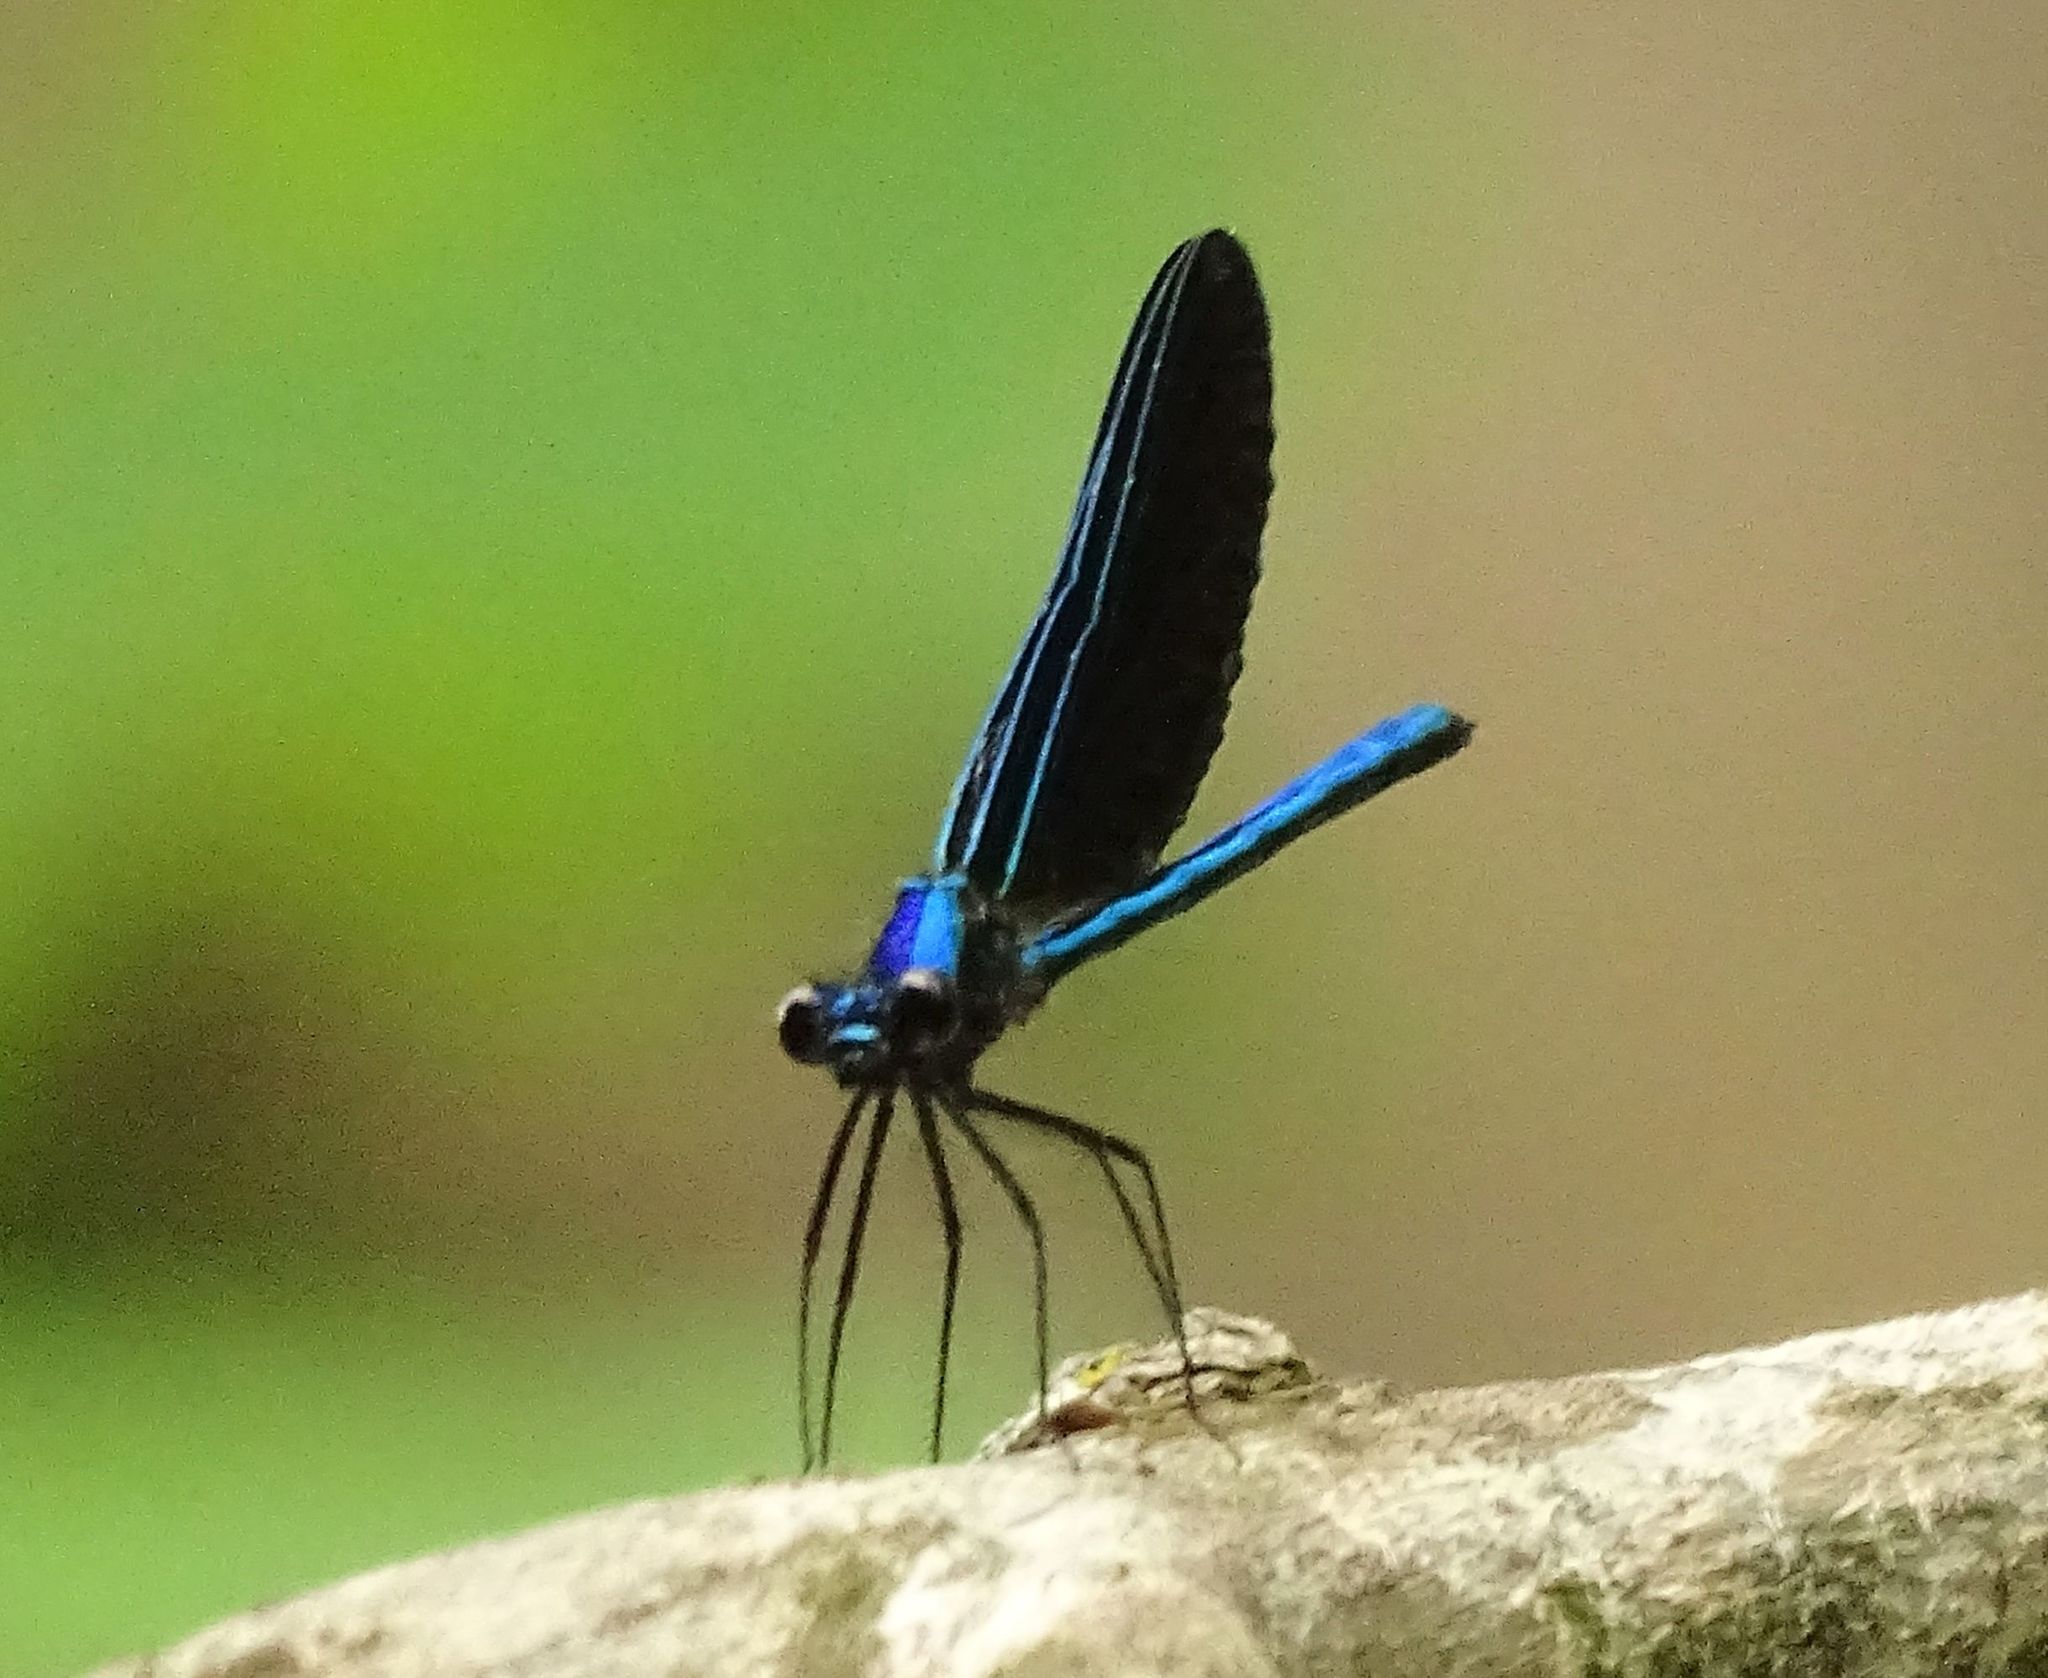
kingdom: Animalia
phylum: Arthropoda
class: Insecta
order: Odonata
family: Calopterygidae
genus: Calopteryx
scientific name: Calopteryx maculata
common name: Ebony jewelwing
